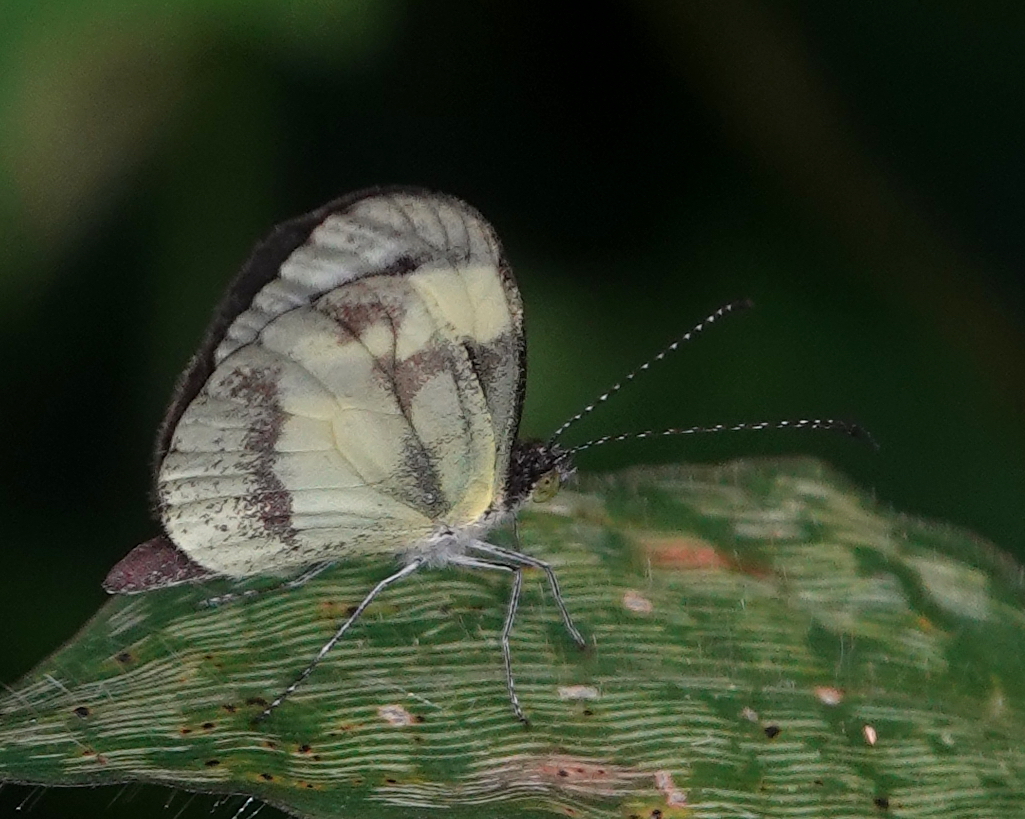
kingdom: Animalia
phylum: Arthropoda
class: Insecta
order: Lepidoptera
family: Pieridae
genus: Dismorphia
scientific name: Dismorphia medora
